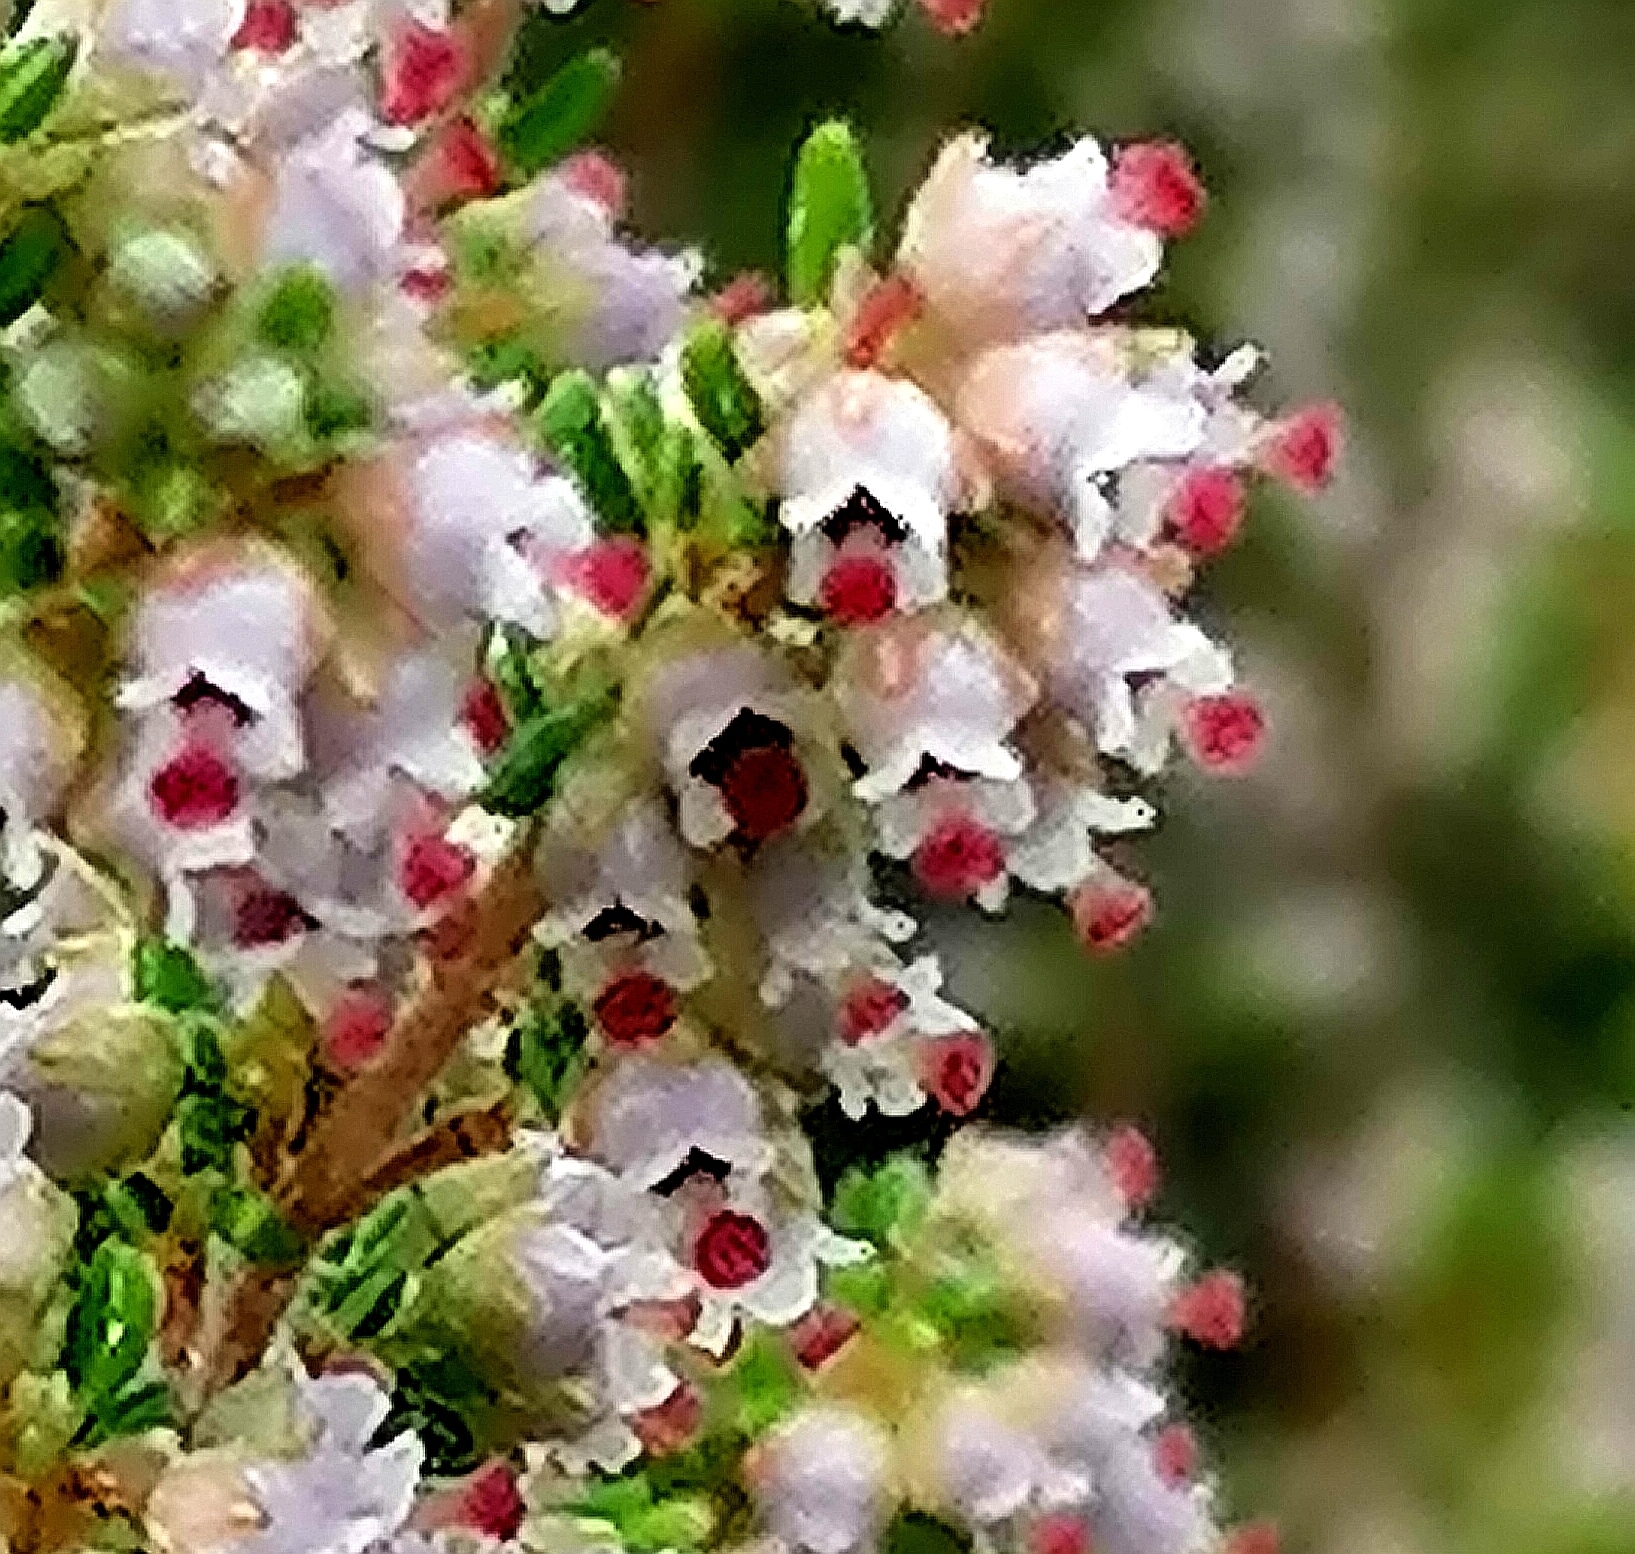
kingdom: Plantae
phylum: Tracheophyta
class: Magnoliopsida
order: Ericales
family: Ericaceae
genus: Erica
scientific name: Erica hispidula
